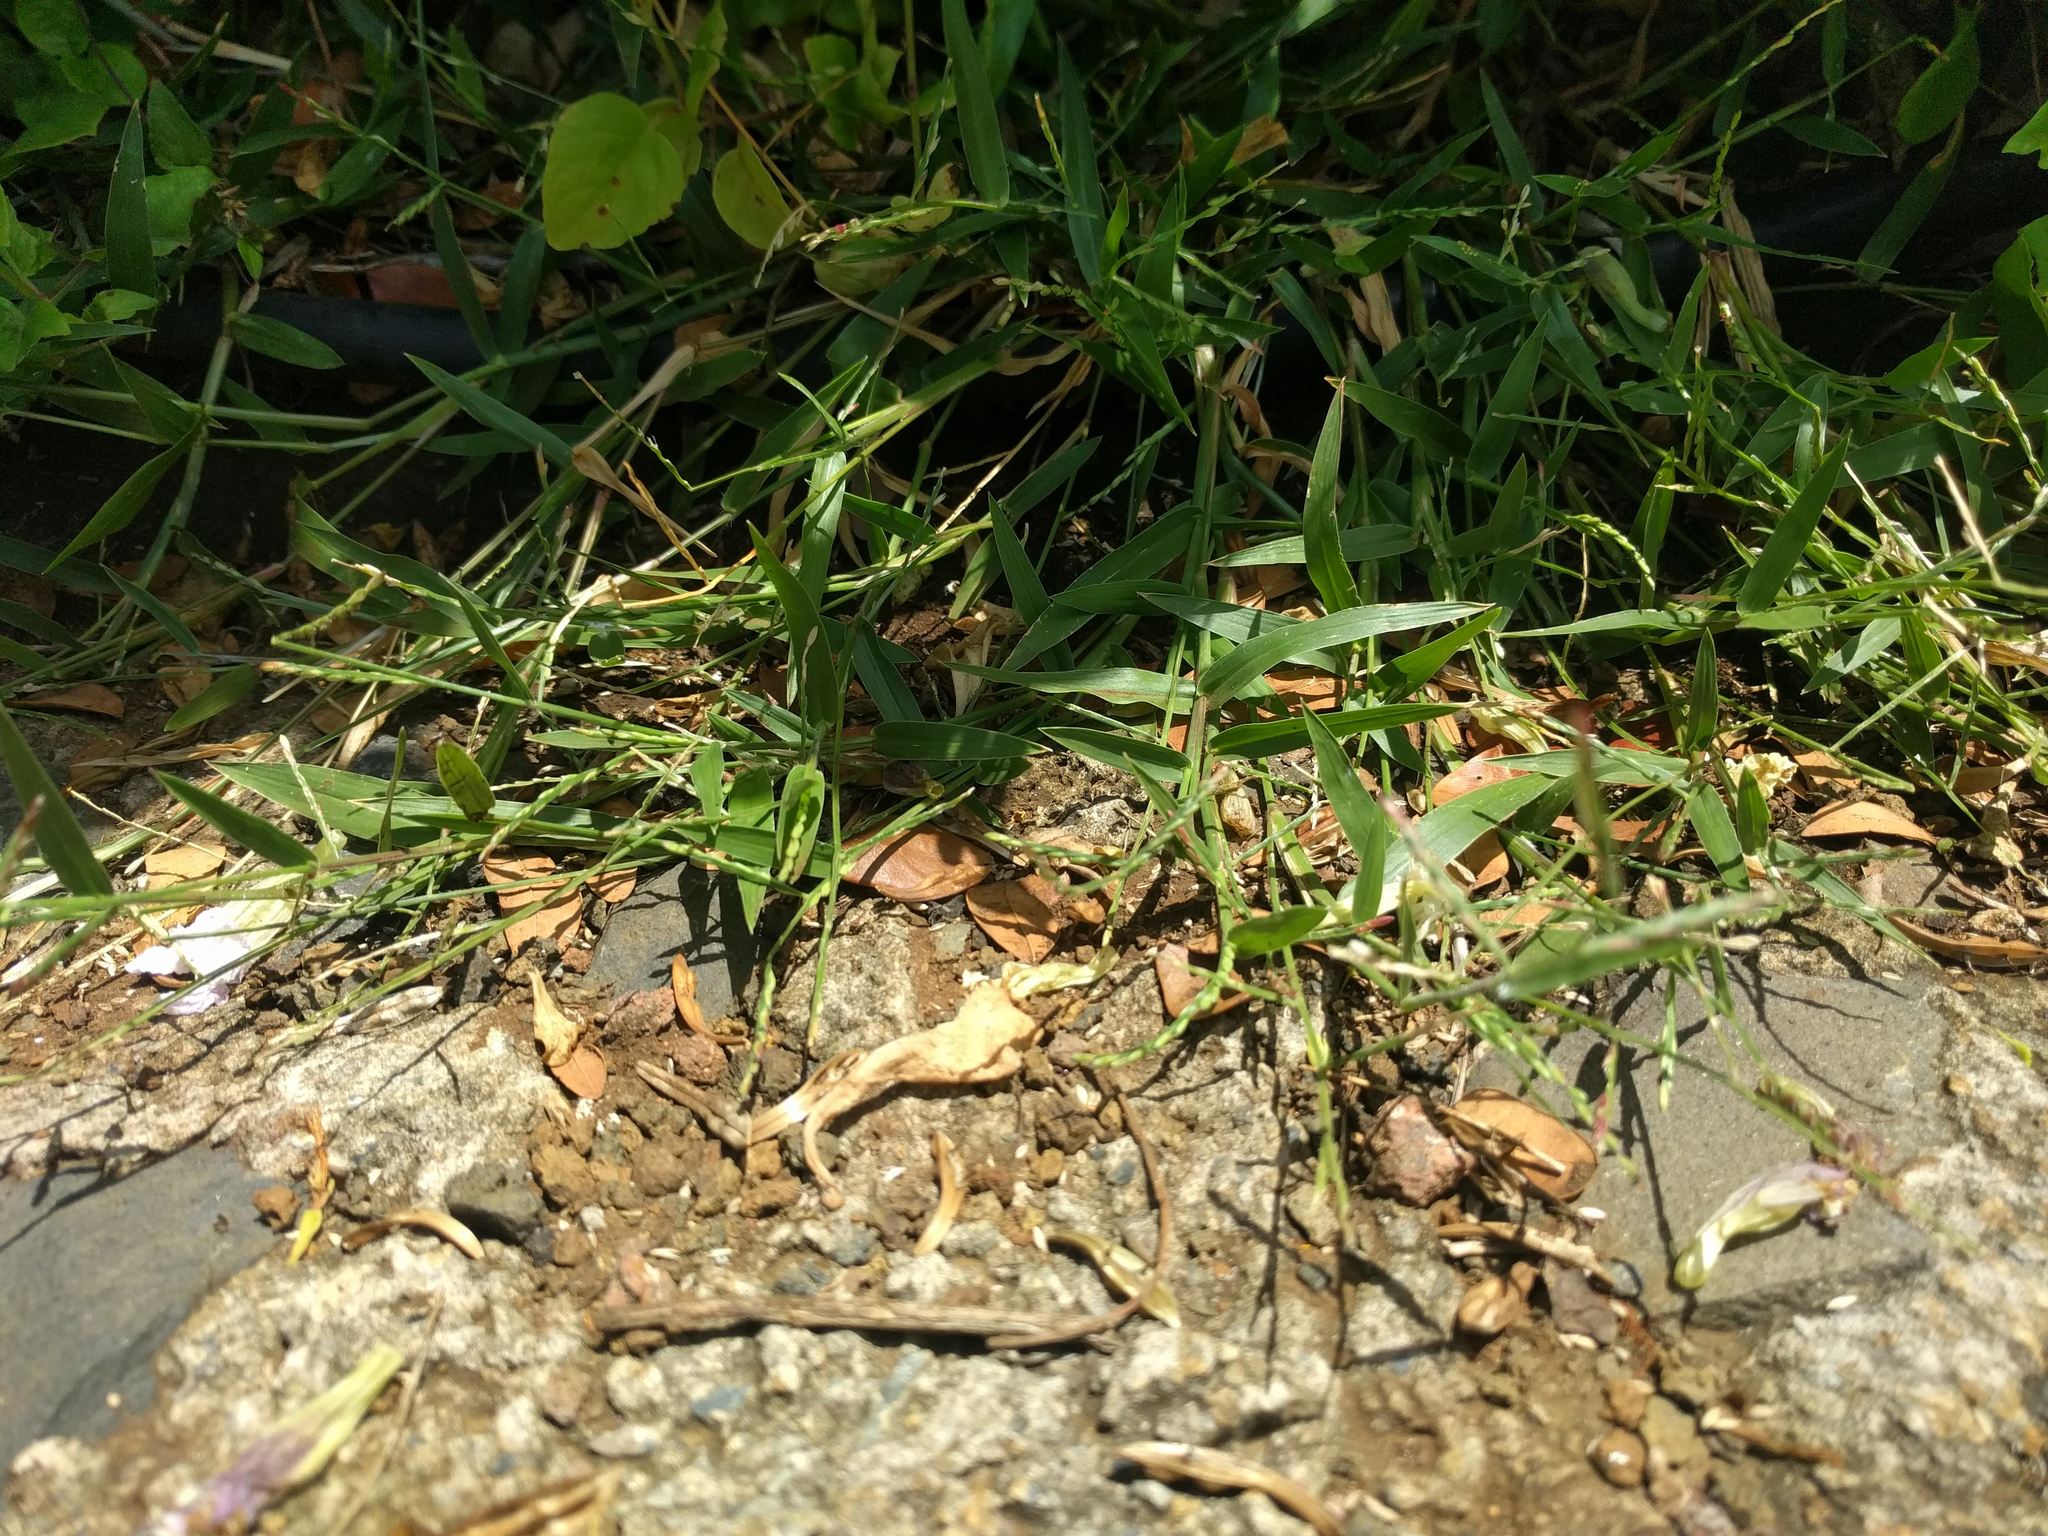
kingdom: Plantae
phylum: Tracheophyta
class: Liliopsida
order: Poales
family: Poaceae
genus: Urochloa
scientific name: Urochloa distachyos
